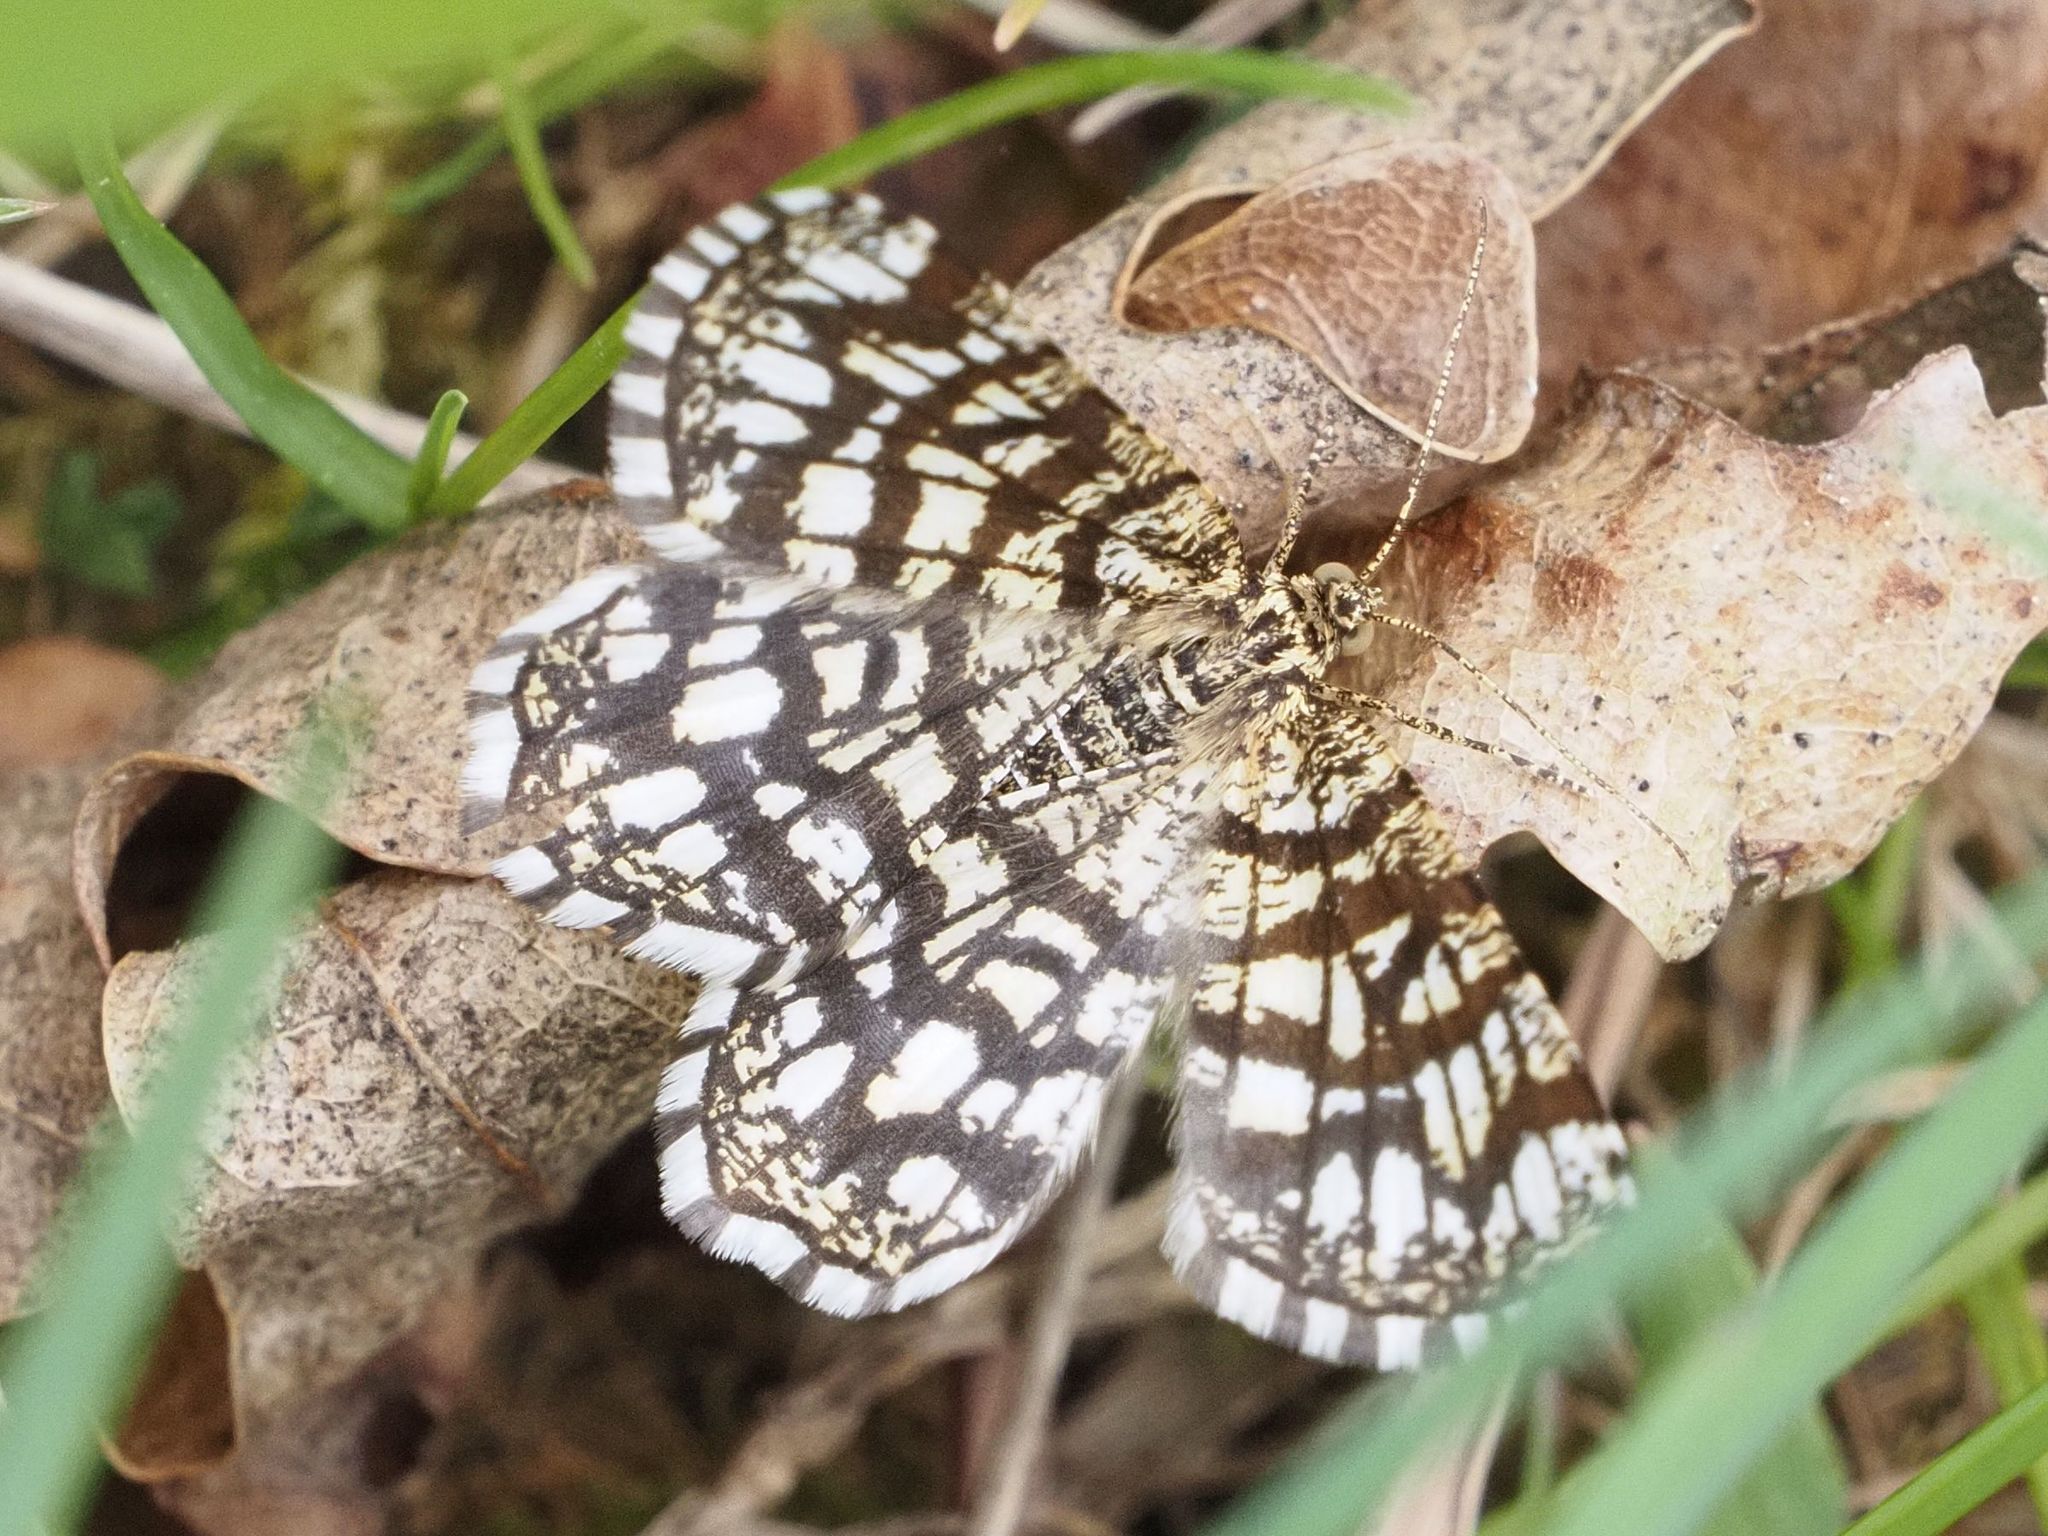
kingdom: Animalia
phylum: Arthropoda
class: Insecta
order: Lepidoptera
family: Geometridae
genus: Chiasmia
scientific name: Chiasmia clathrata
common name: Latticed heath
